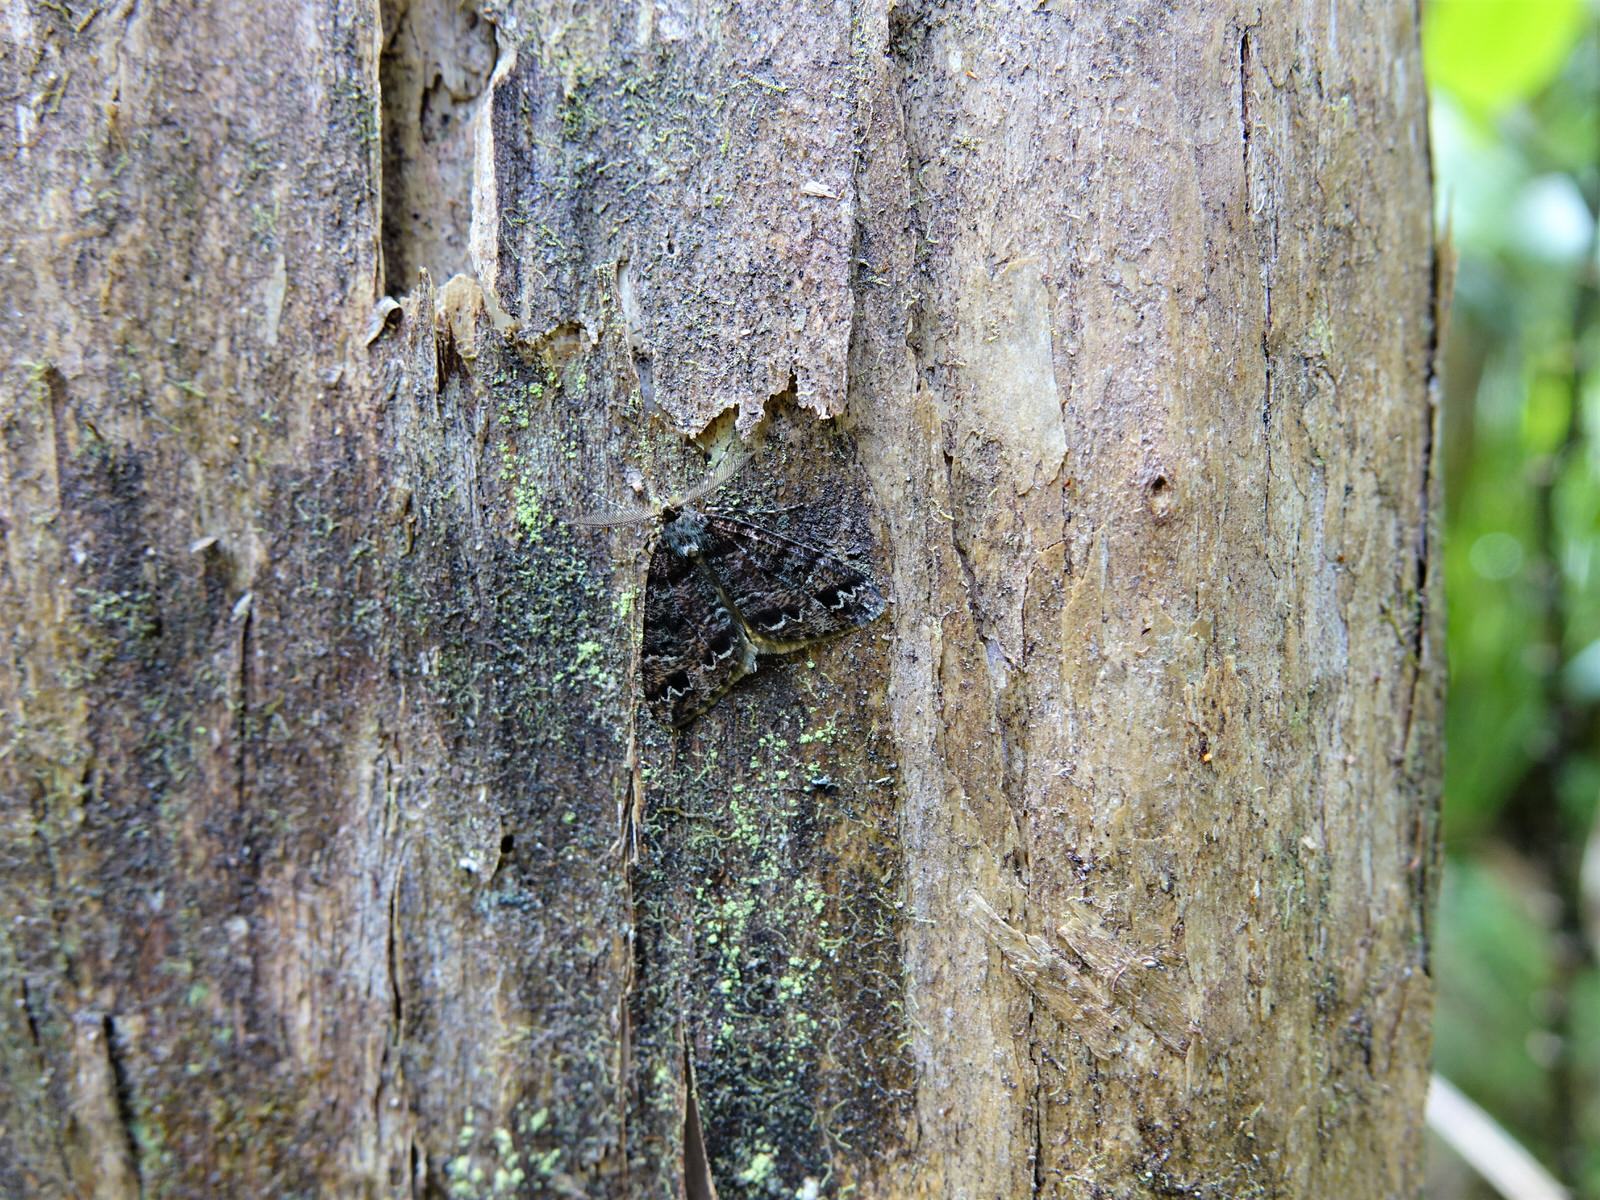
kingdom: Animalia
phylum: Arthropoda
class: Insecta
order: Lepidoptera
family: Geometridae
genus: Pseudocoremia
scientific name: Pseudocoremia productata
